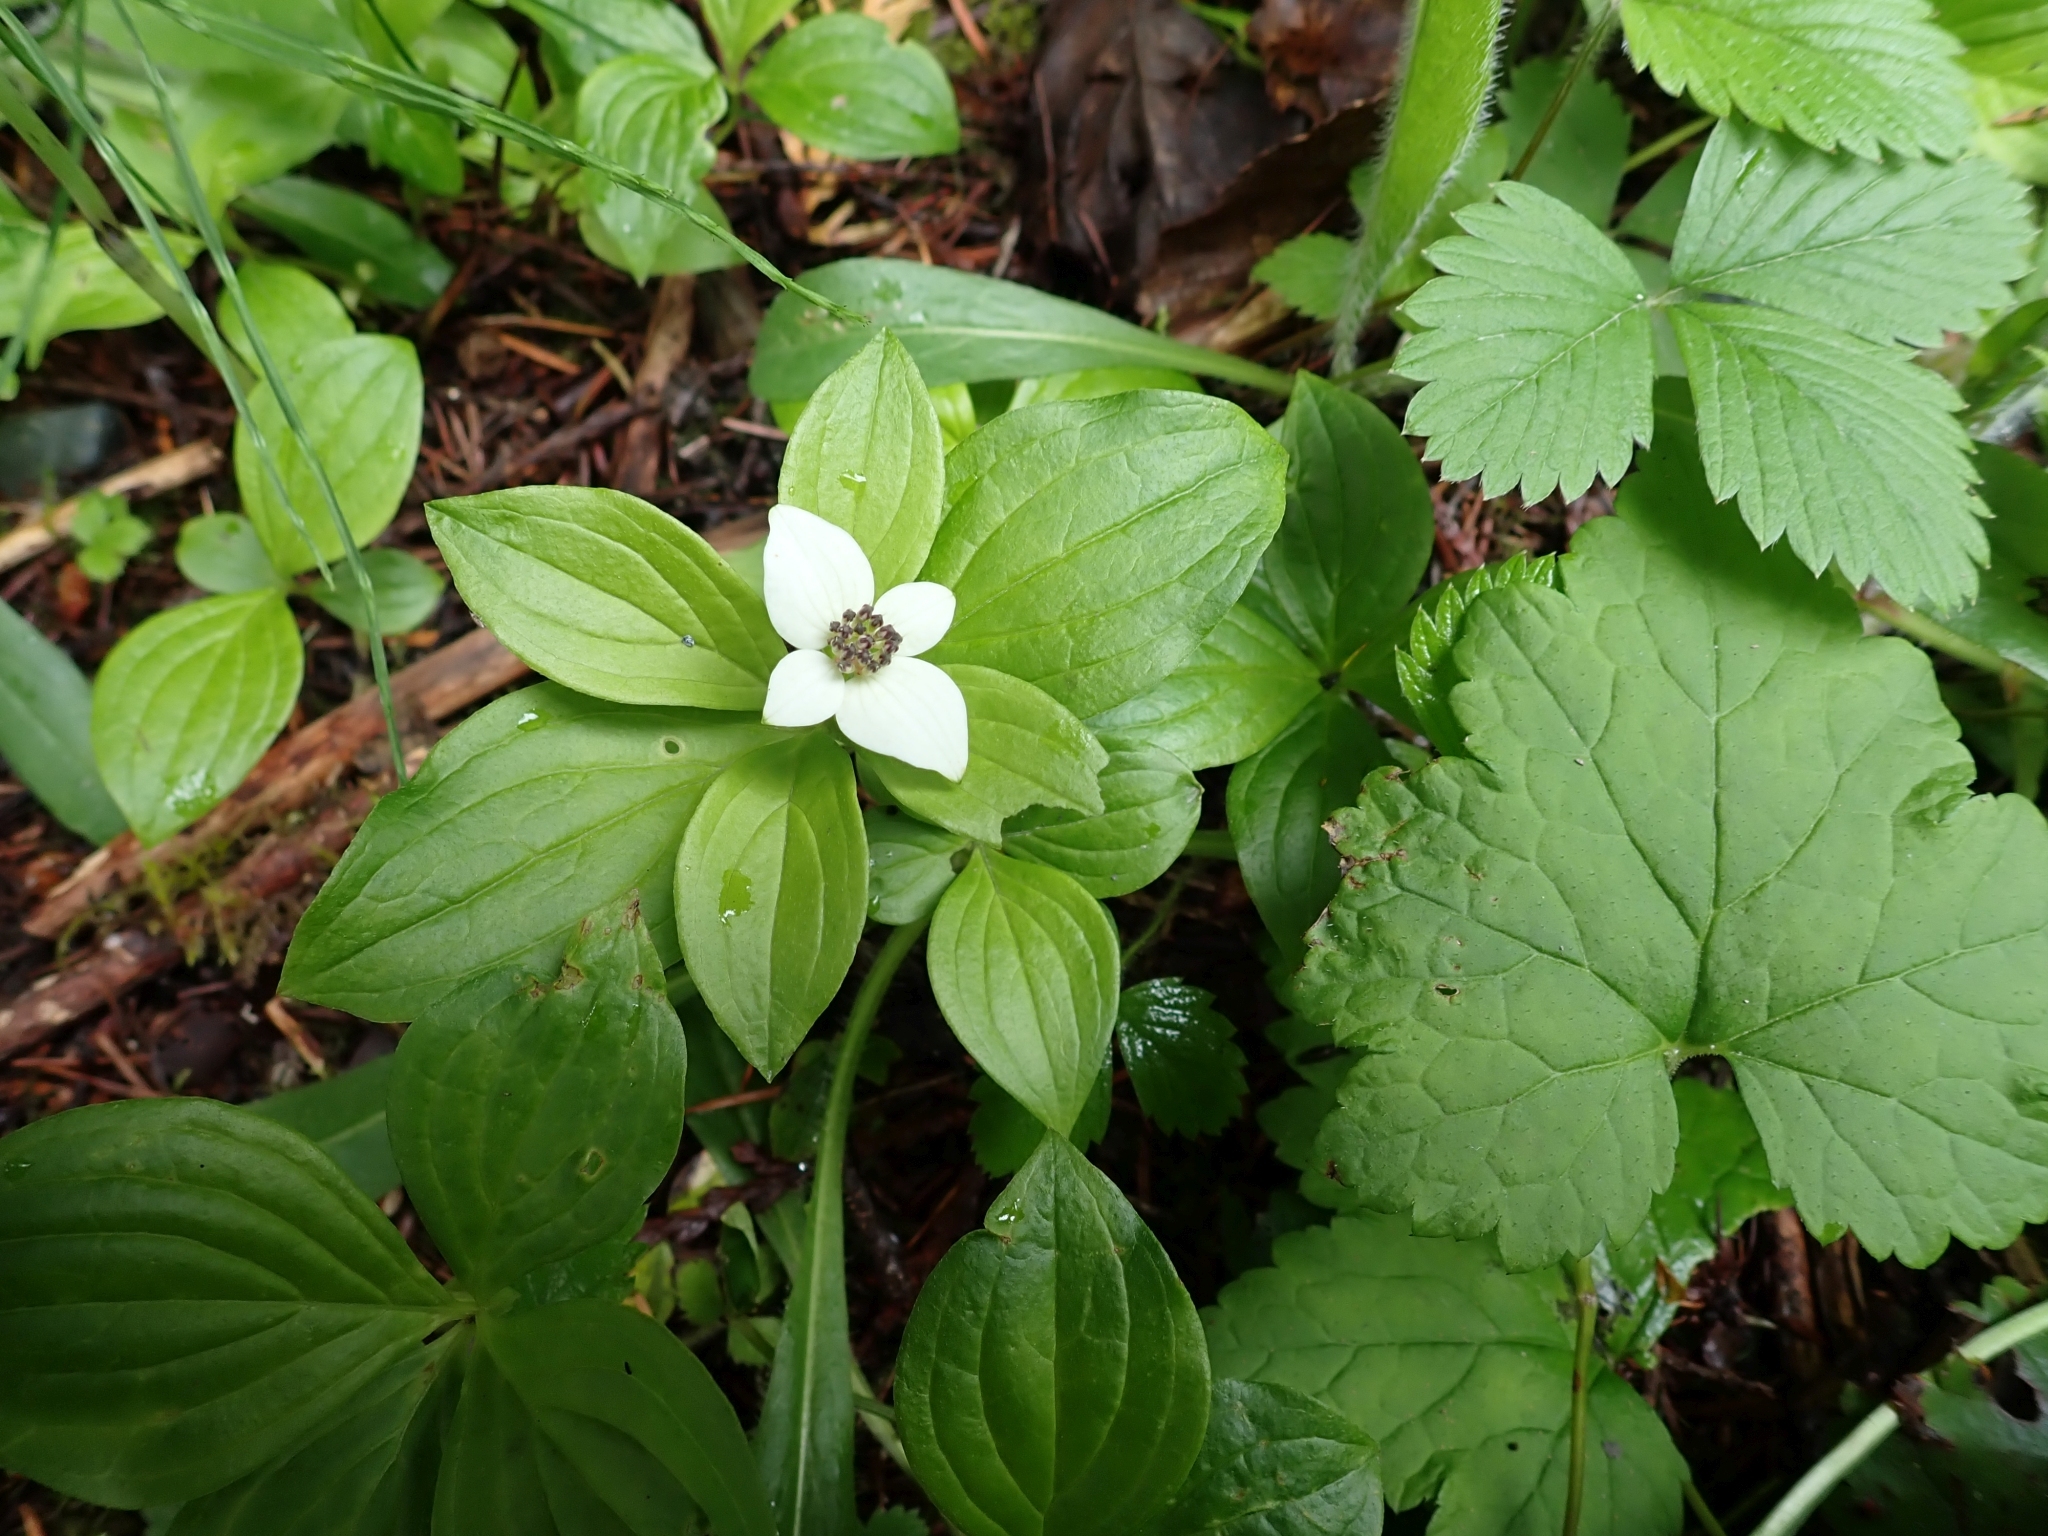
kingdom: Plantae
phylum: Tracheophyta
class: Magnoliopsida
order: Cornales
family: Cornaceae
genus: Cornus
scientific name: Cornus unalaschkensis
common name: Alaska bunchberry
